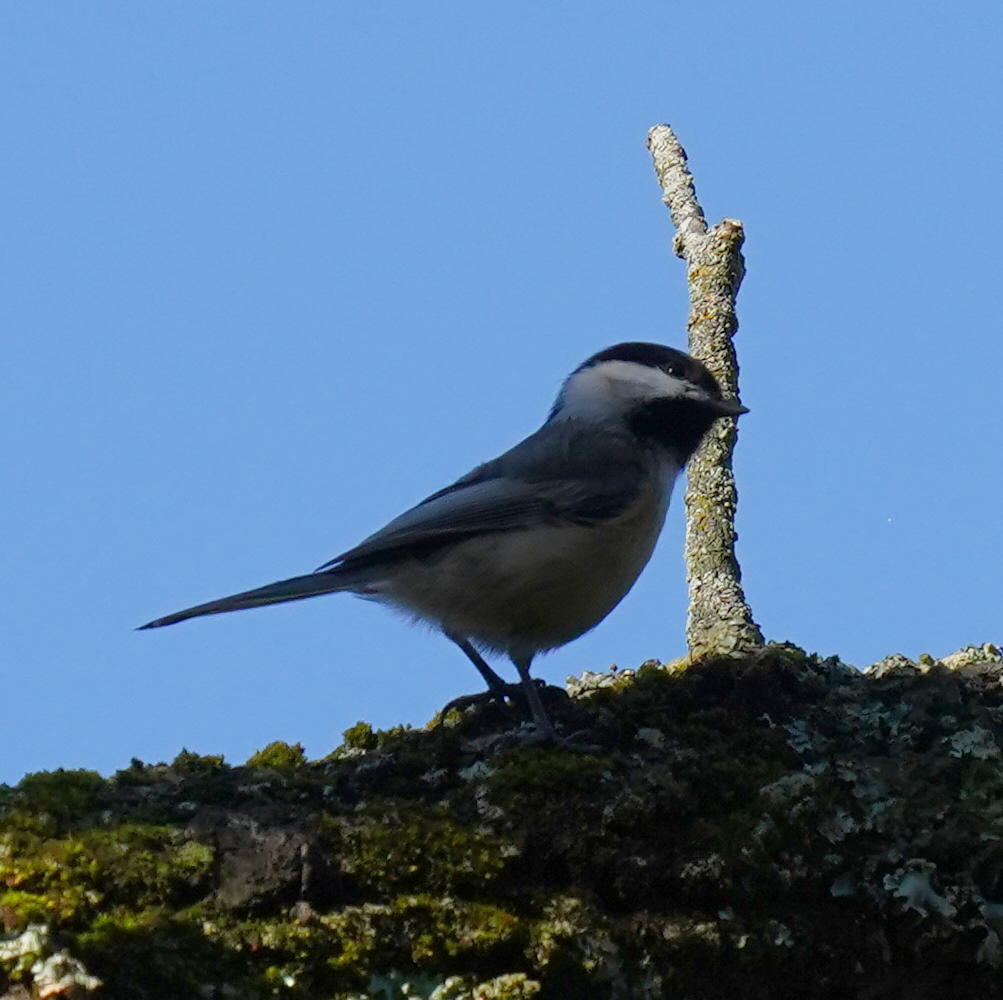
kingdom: Animalia
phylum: Chordata
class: Aves
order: Passeriformes
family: Paridae
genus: Poecile
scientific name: Poecile atricapillus
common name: Black-capped chickadee
